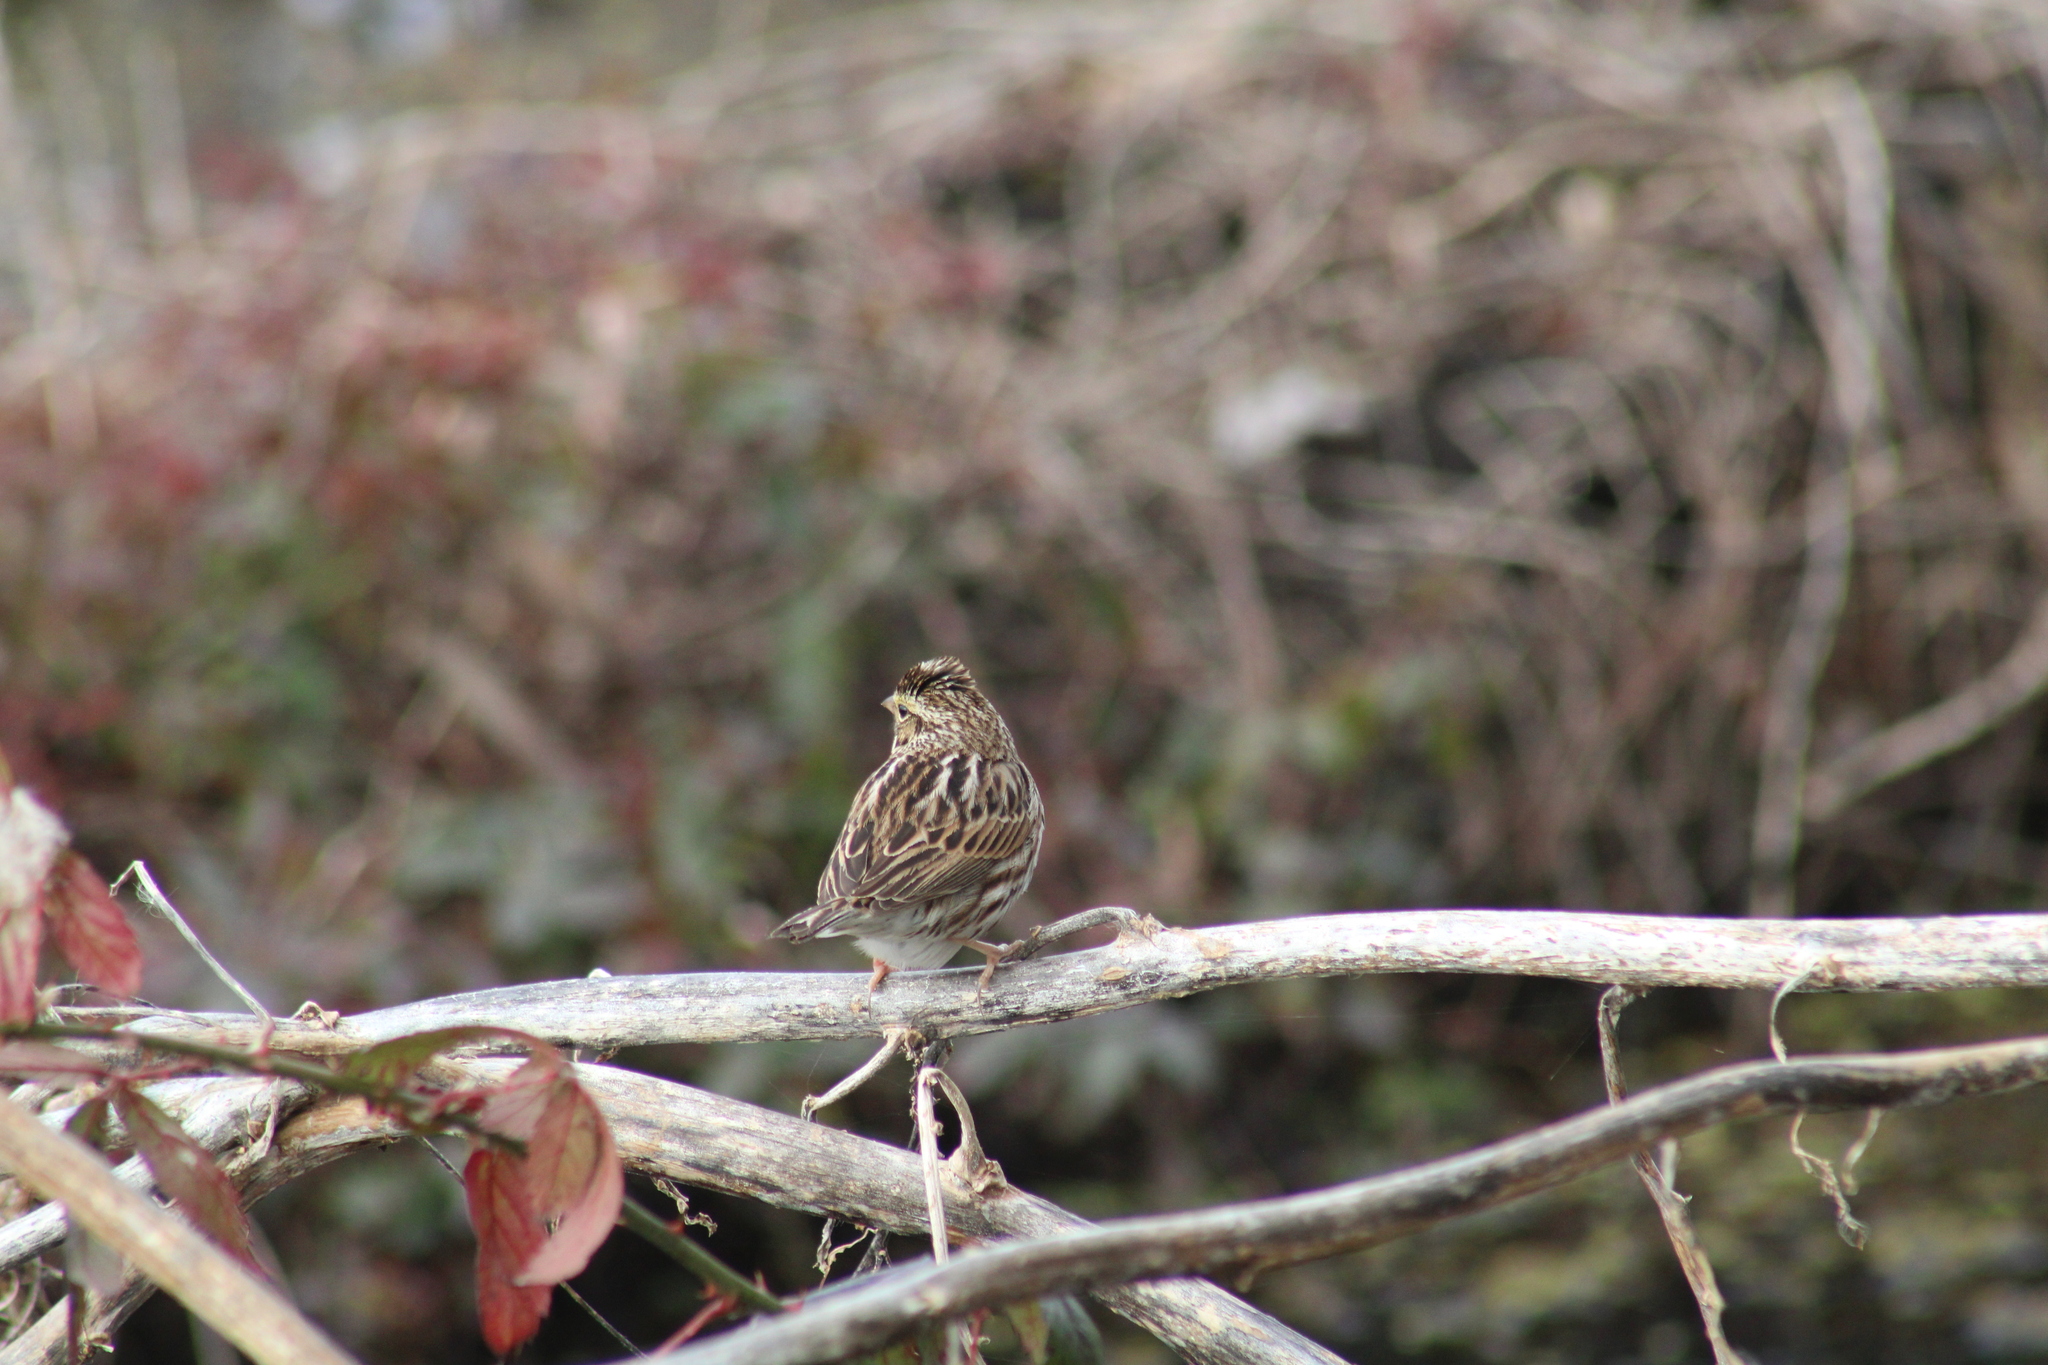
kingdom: Animalia
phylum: Chordata
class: Aves
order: Passeriformes
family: Passerellidae
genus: Passerculus
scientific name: Passerculus sandwichensis
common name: Savannah sparrow
